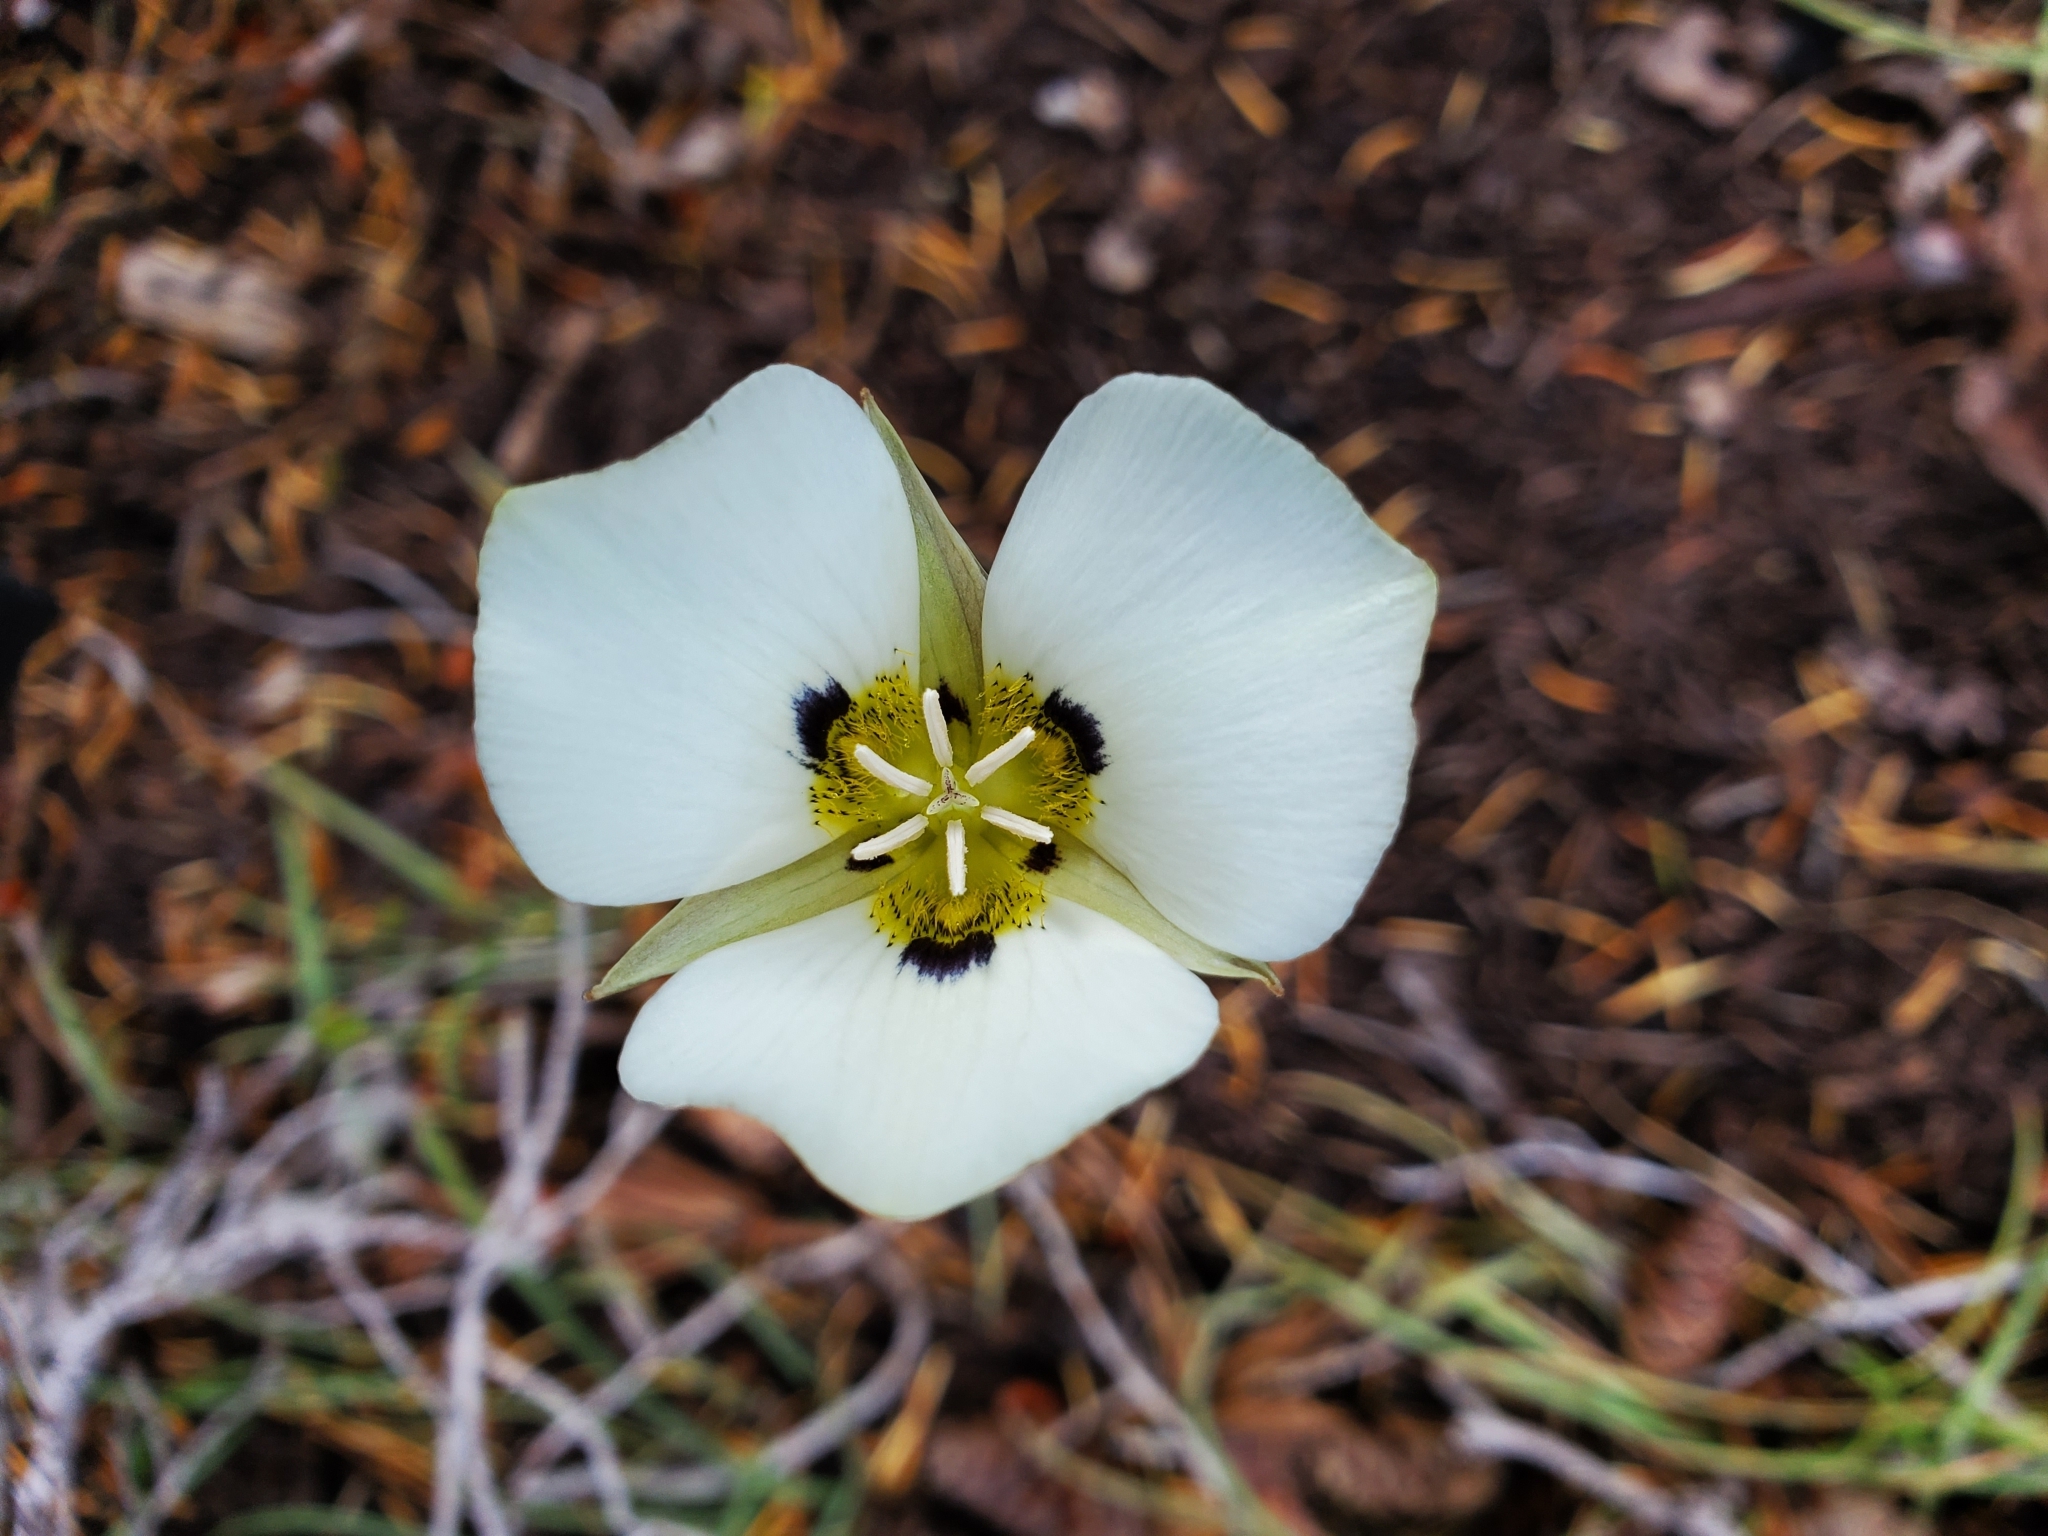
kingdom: Plantae
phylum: Tracheophyta
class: Liliopsida
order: Liliales
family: Liliaceae
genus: Calochortus
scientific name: Calochortus leichtlinii
